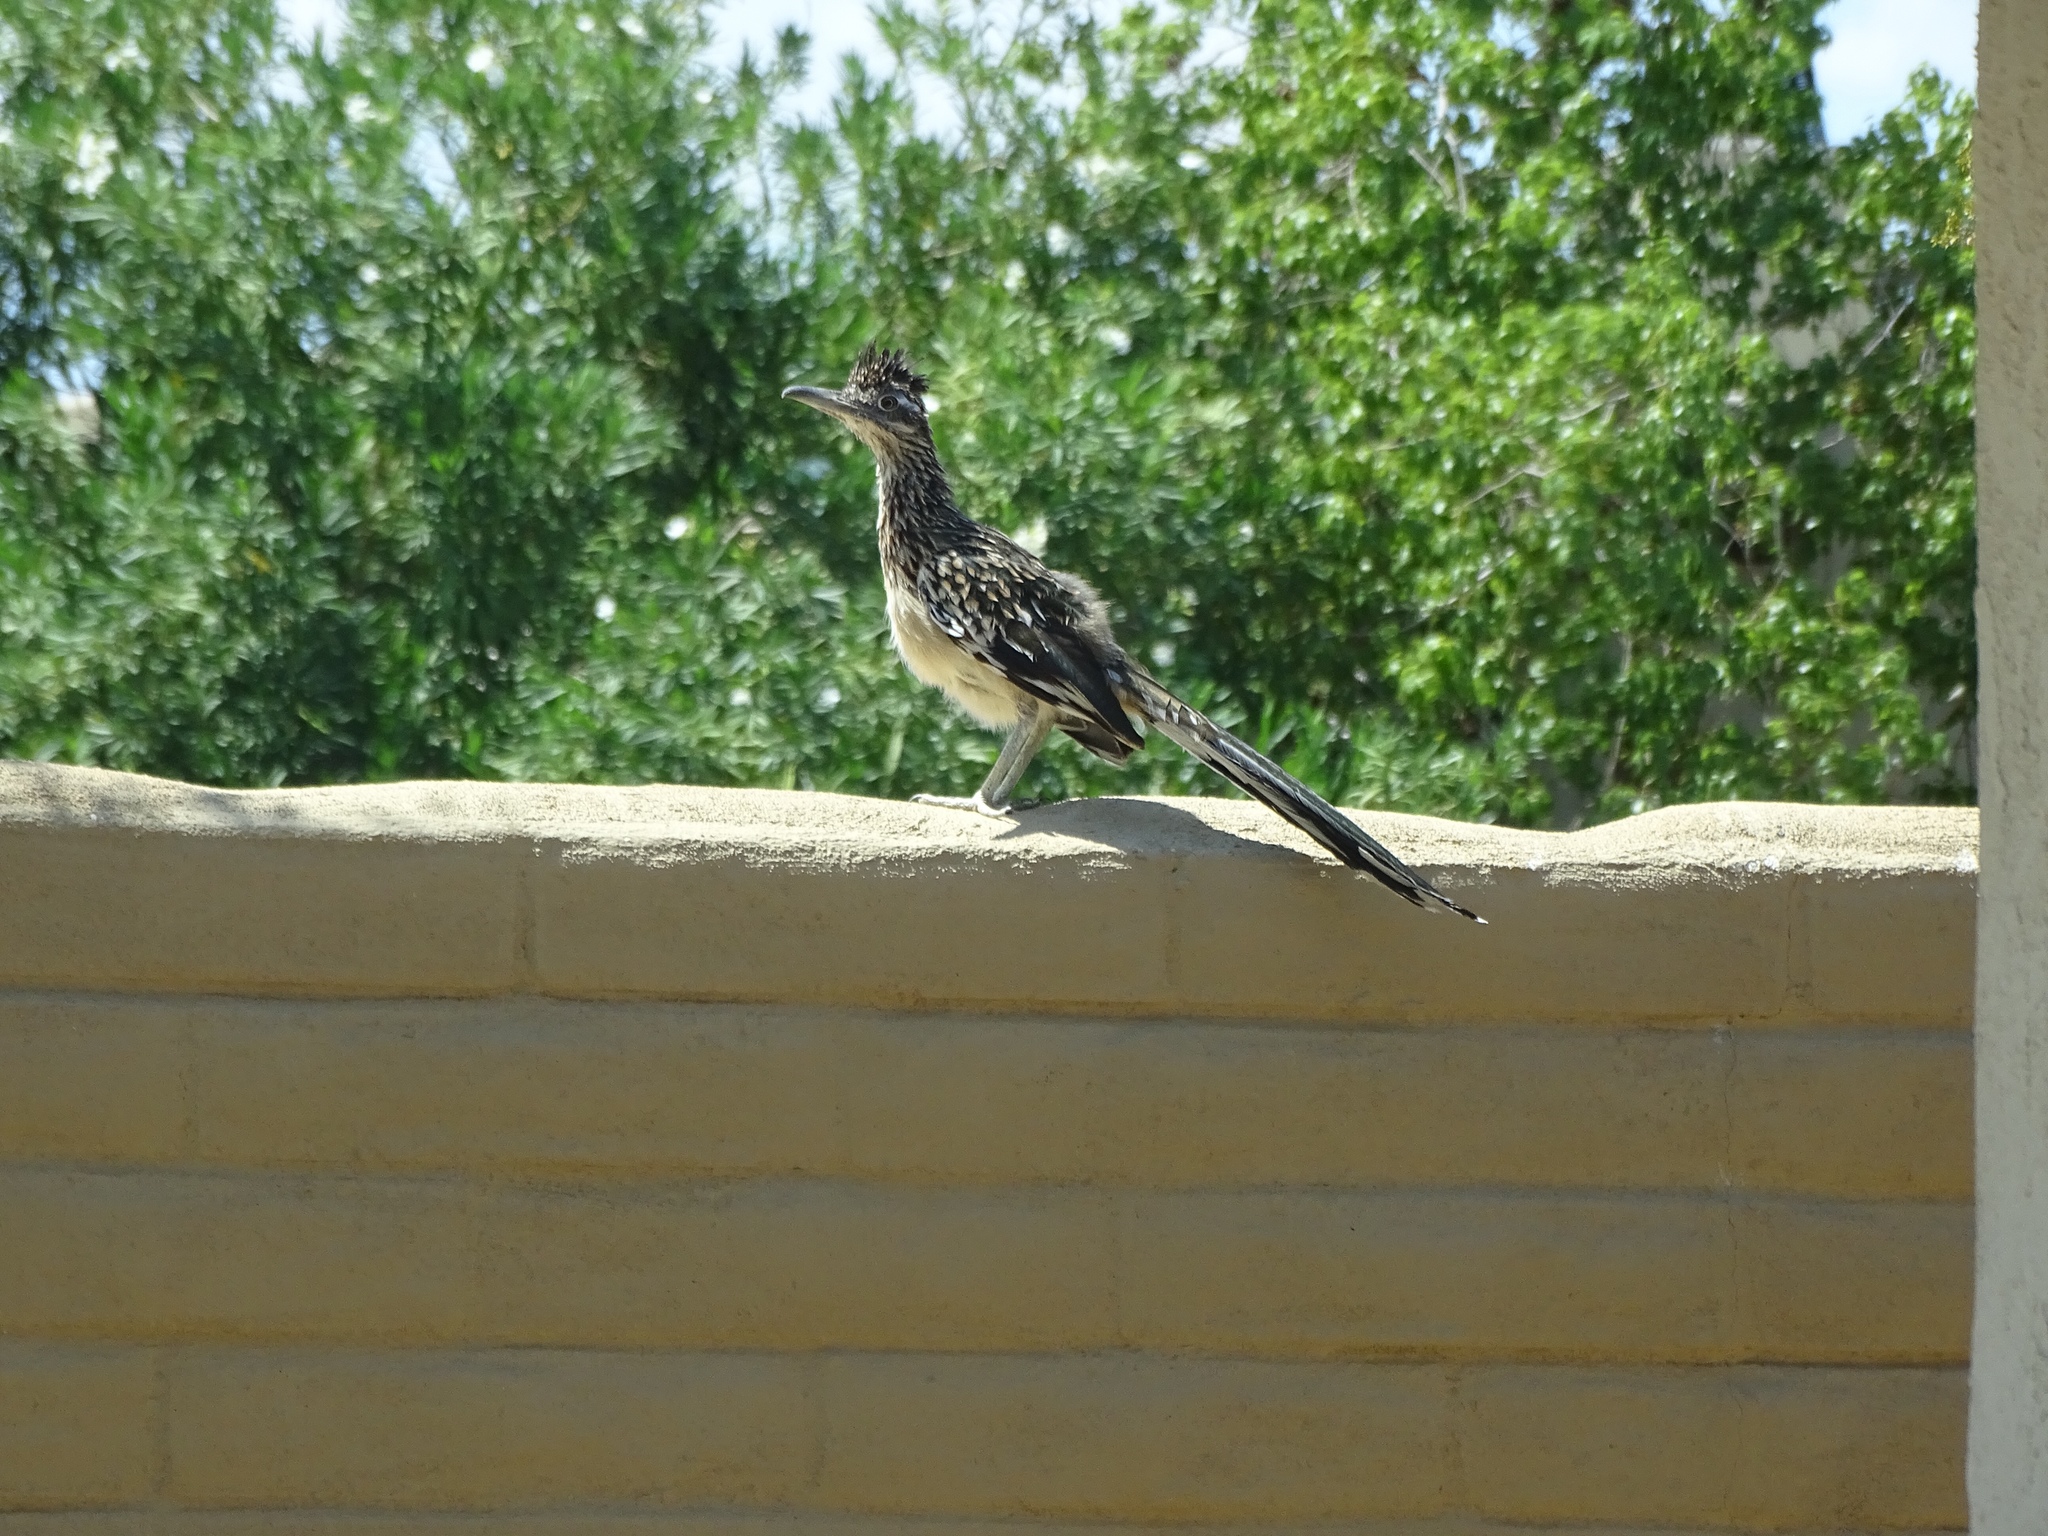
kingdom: Animalia
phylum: Chordata
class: Aves
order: Cuculiformes
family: Cuculidae
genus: Geococcyx
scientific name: Geococcyx californianus
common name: Greater roadrunner
